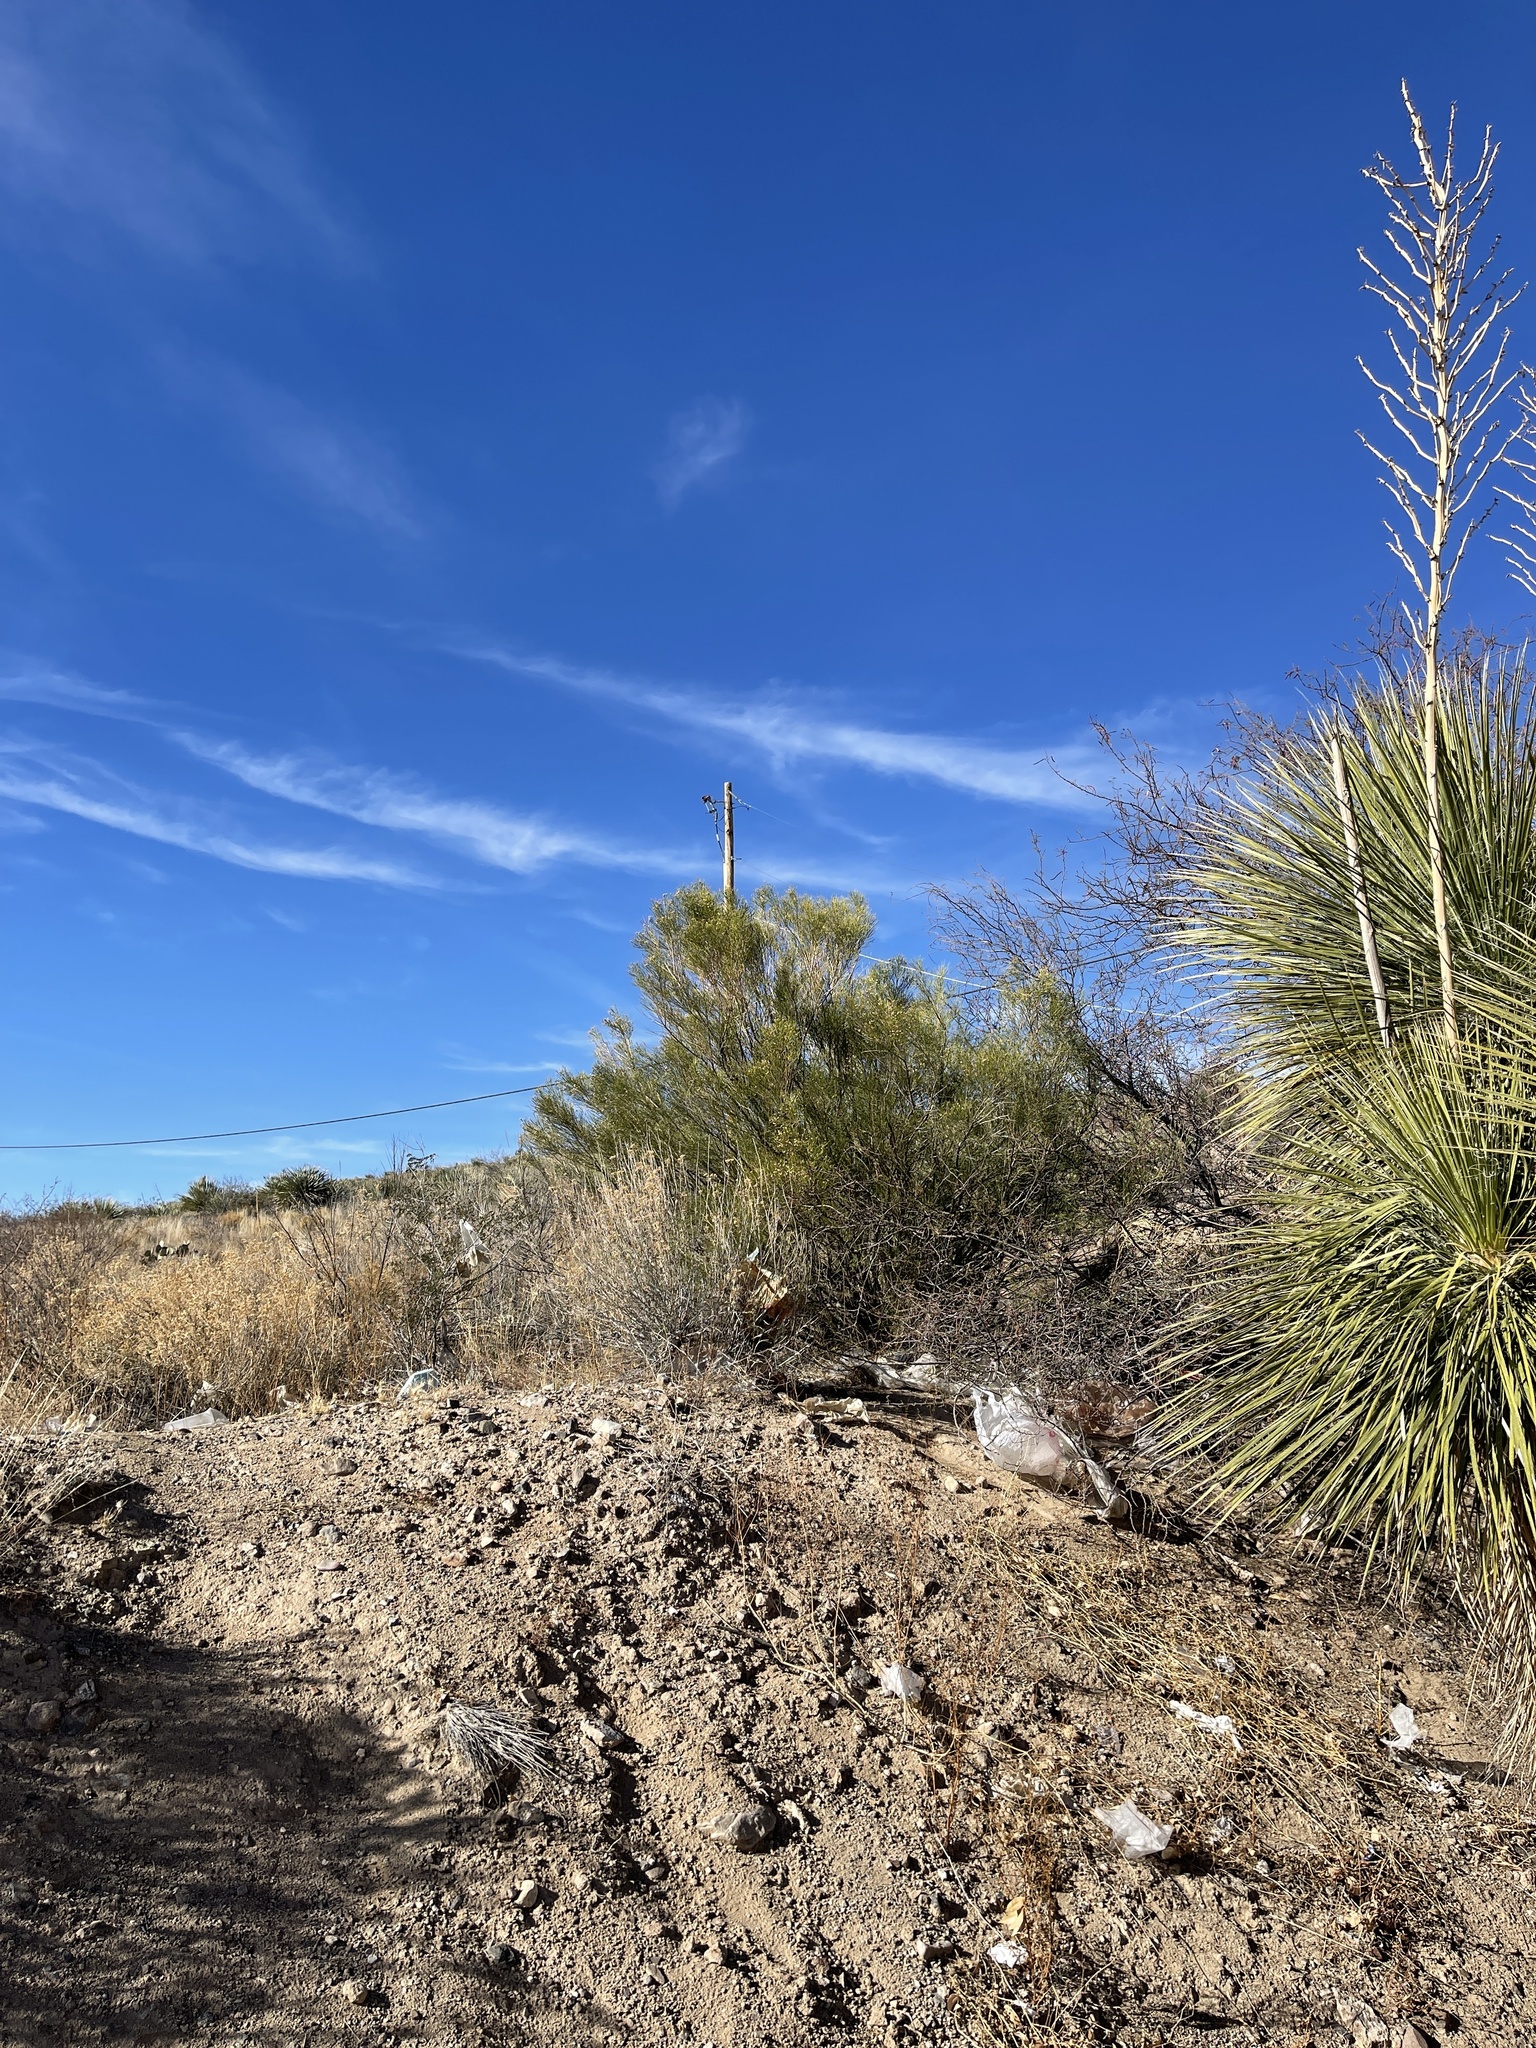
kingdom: Plantae
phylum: Tracheophyta
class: Magnoliopsida
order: Asterales
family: Asteraceae
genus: Baccharis
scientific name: Baccharis sarothroides
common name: Desert-broom
